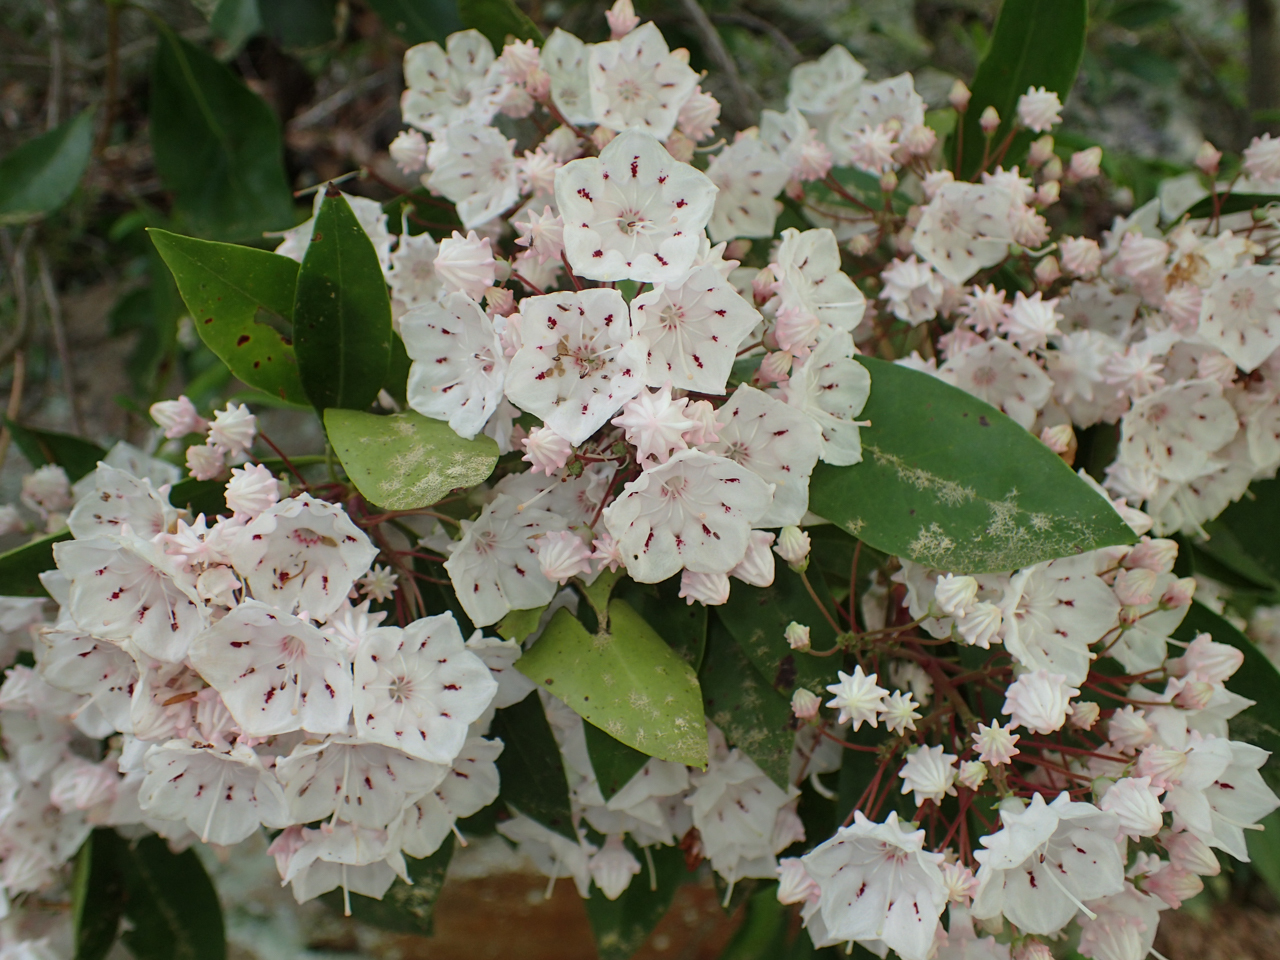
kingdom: Plantae
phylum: Tracheophyta
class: Magnoliopsida
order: Ericales
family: Ericaceae
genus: Kalmia
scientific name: Kalmia latifolia
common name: Mountain-laurel
